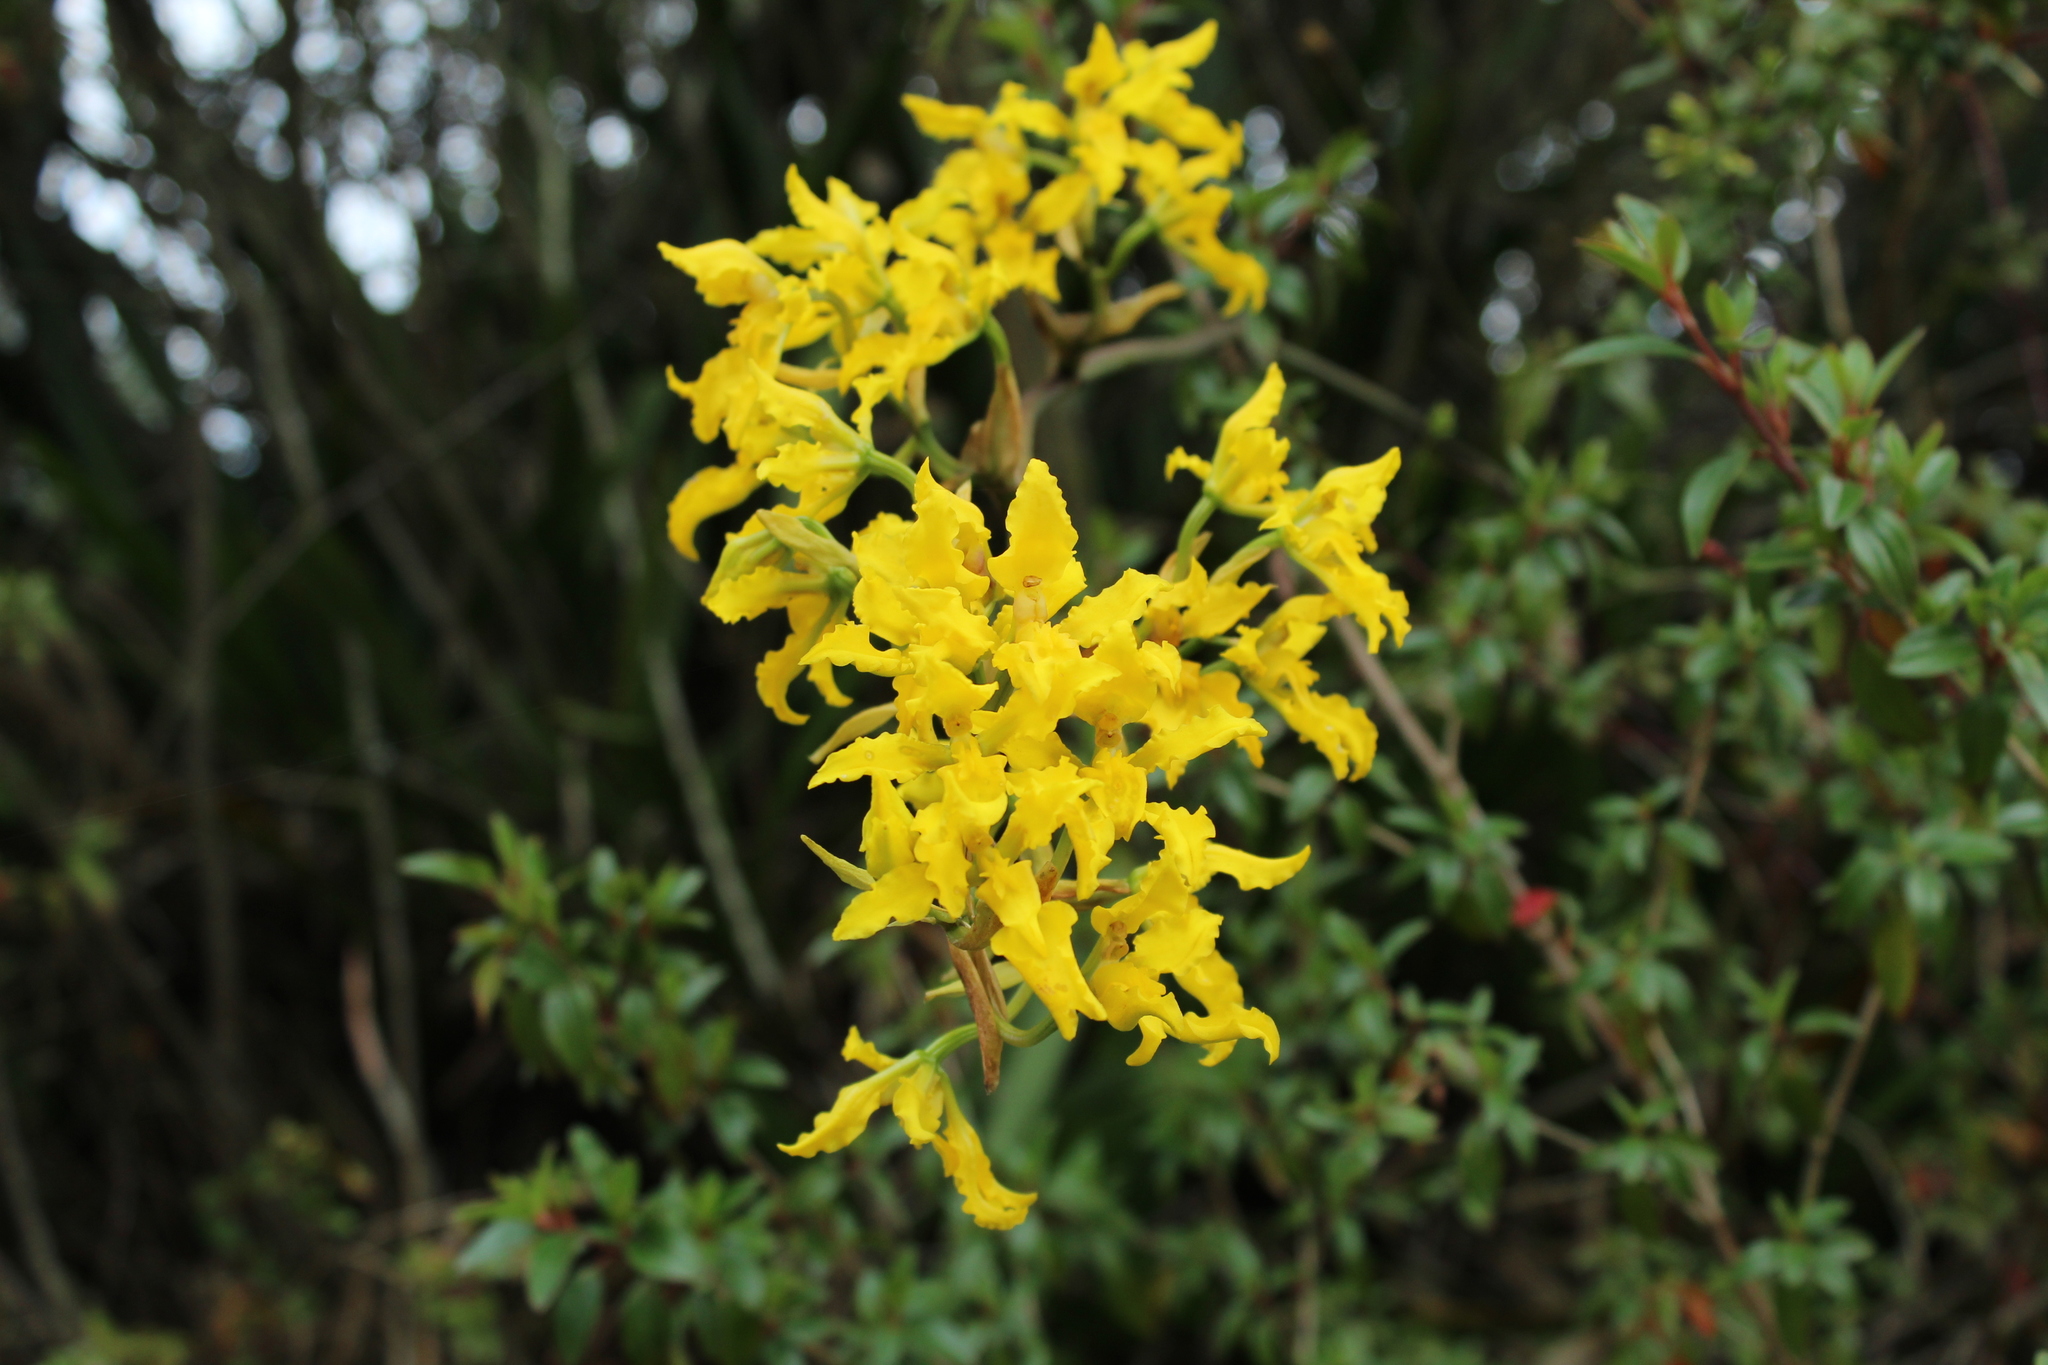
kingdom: Plantae
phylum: Tracheophyta
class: Liliopsida
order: Asparagales
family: Orchidaceae
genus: Cyrtochilum
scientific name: Cyrtochilum revolutum
